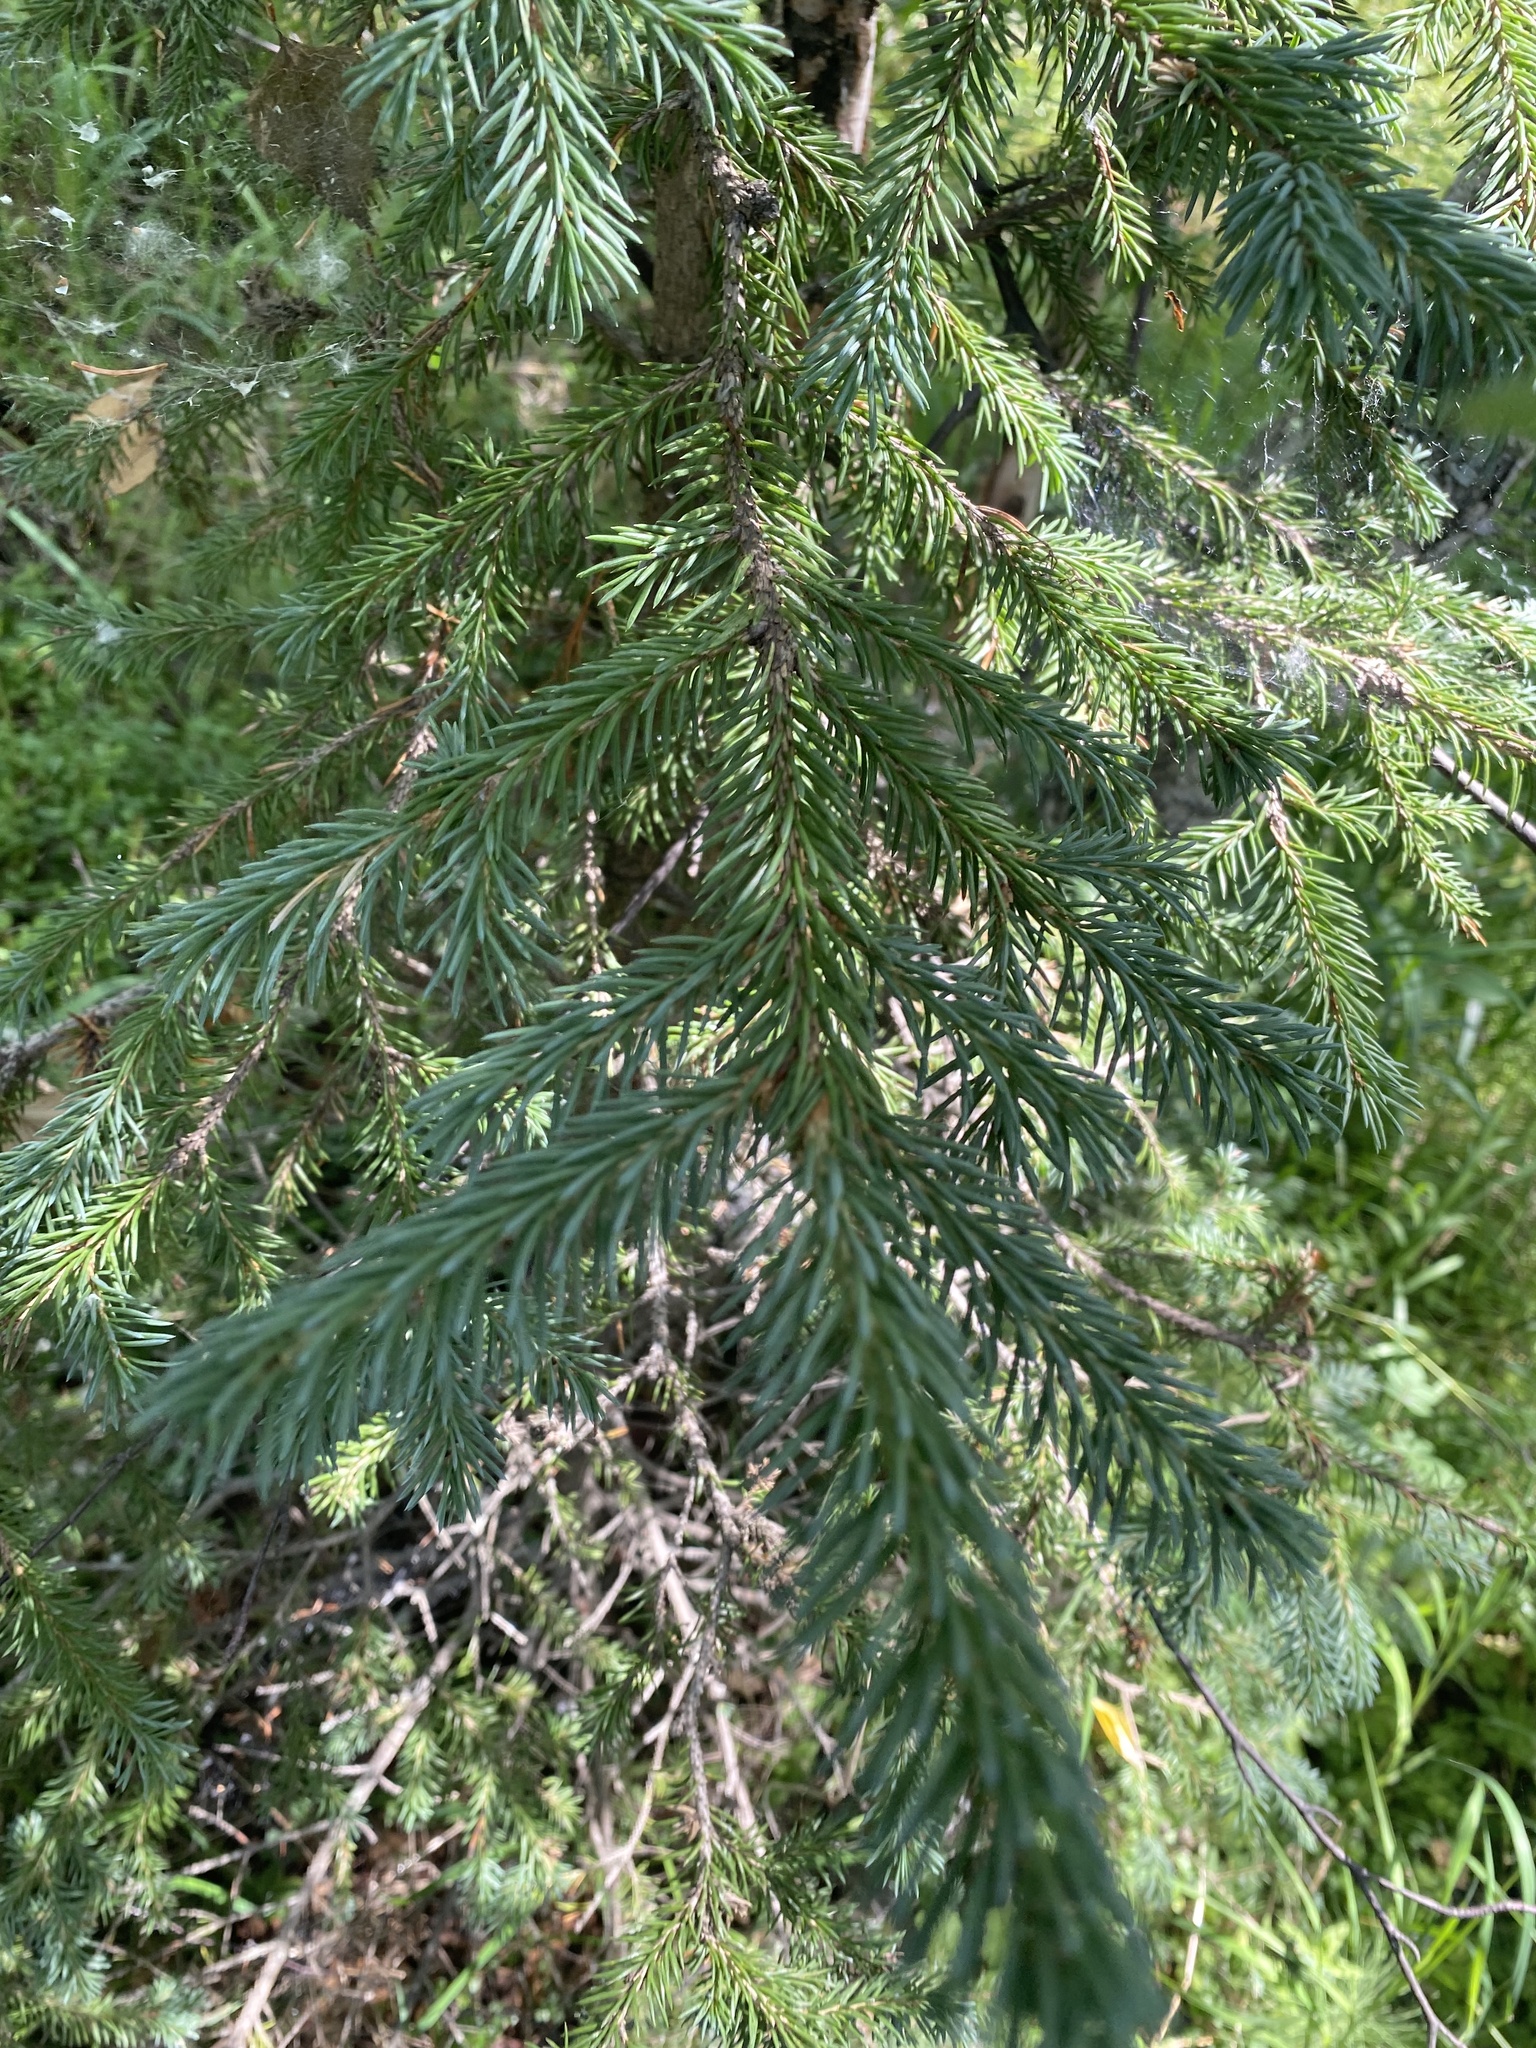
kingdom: Plantae
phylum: Tracheophyta
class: Pinopsida
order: Pinales
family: Pinaceae
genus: Picea
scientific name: Picea obovata
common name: Siberian spruce
